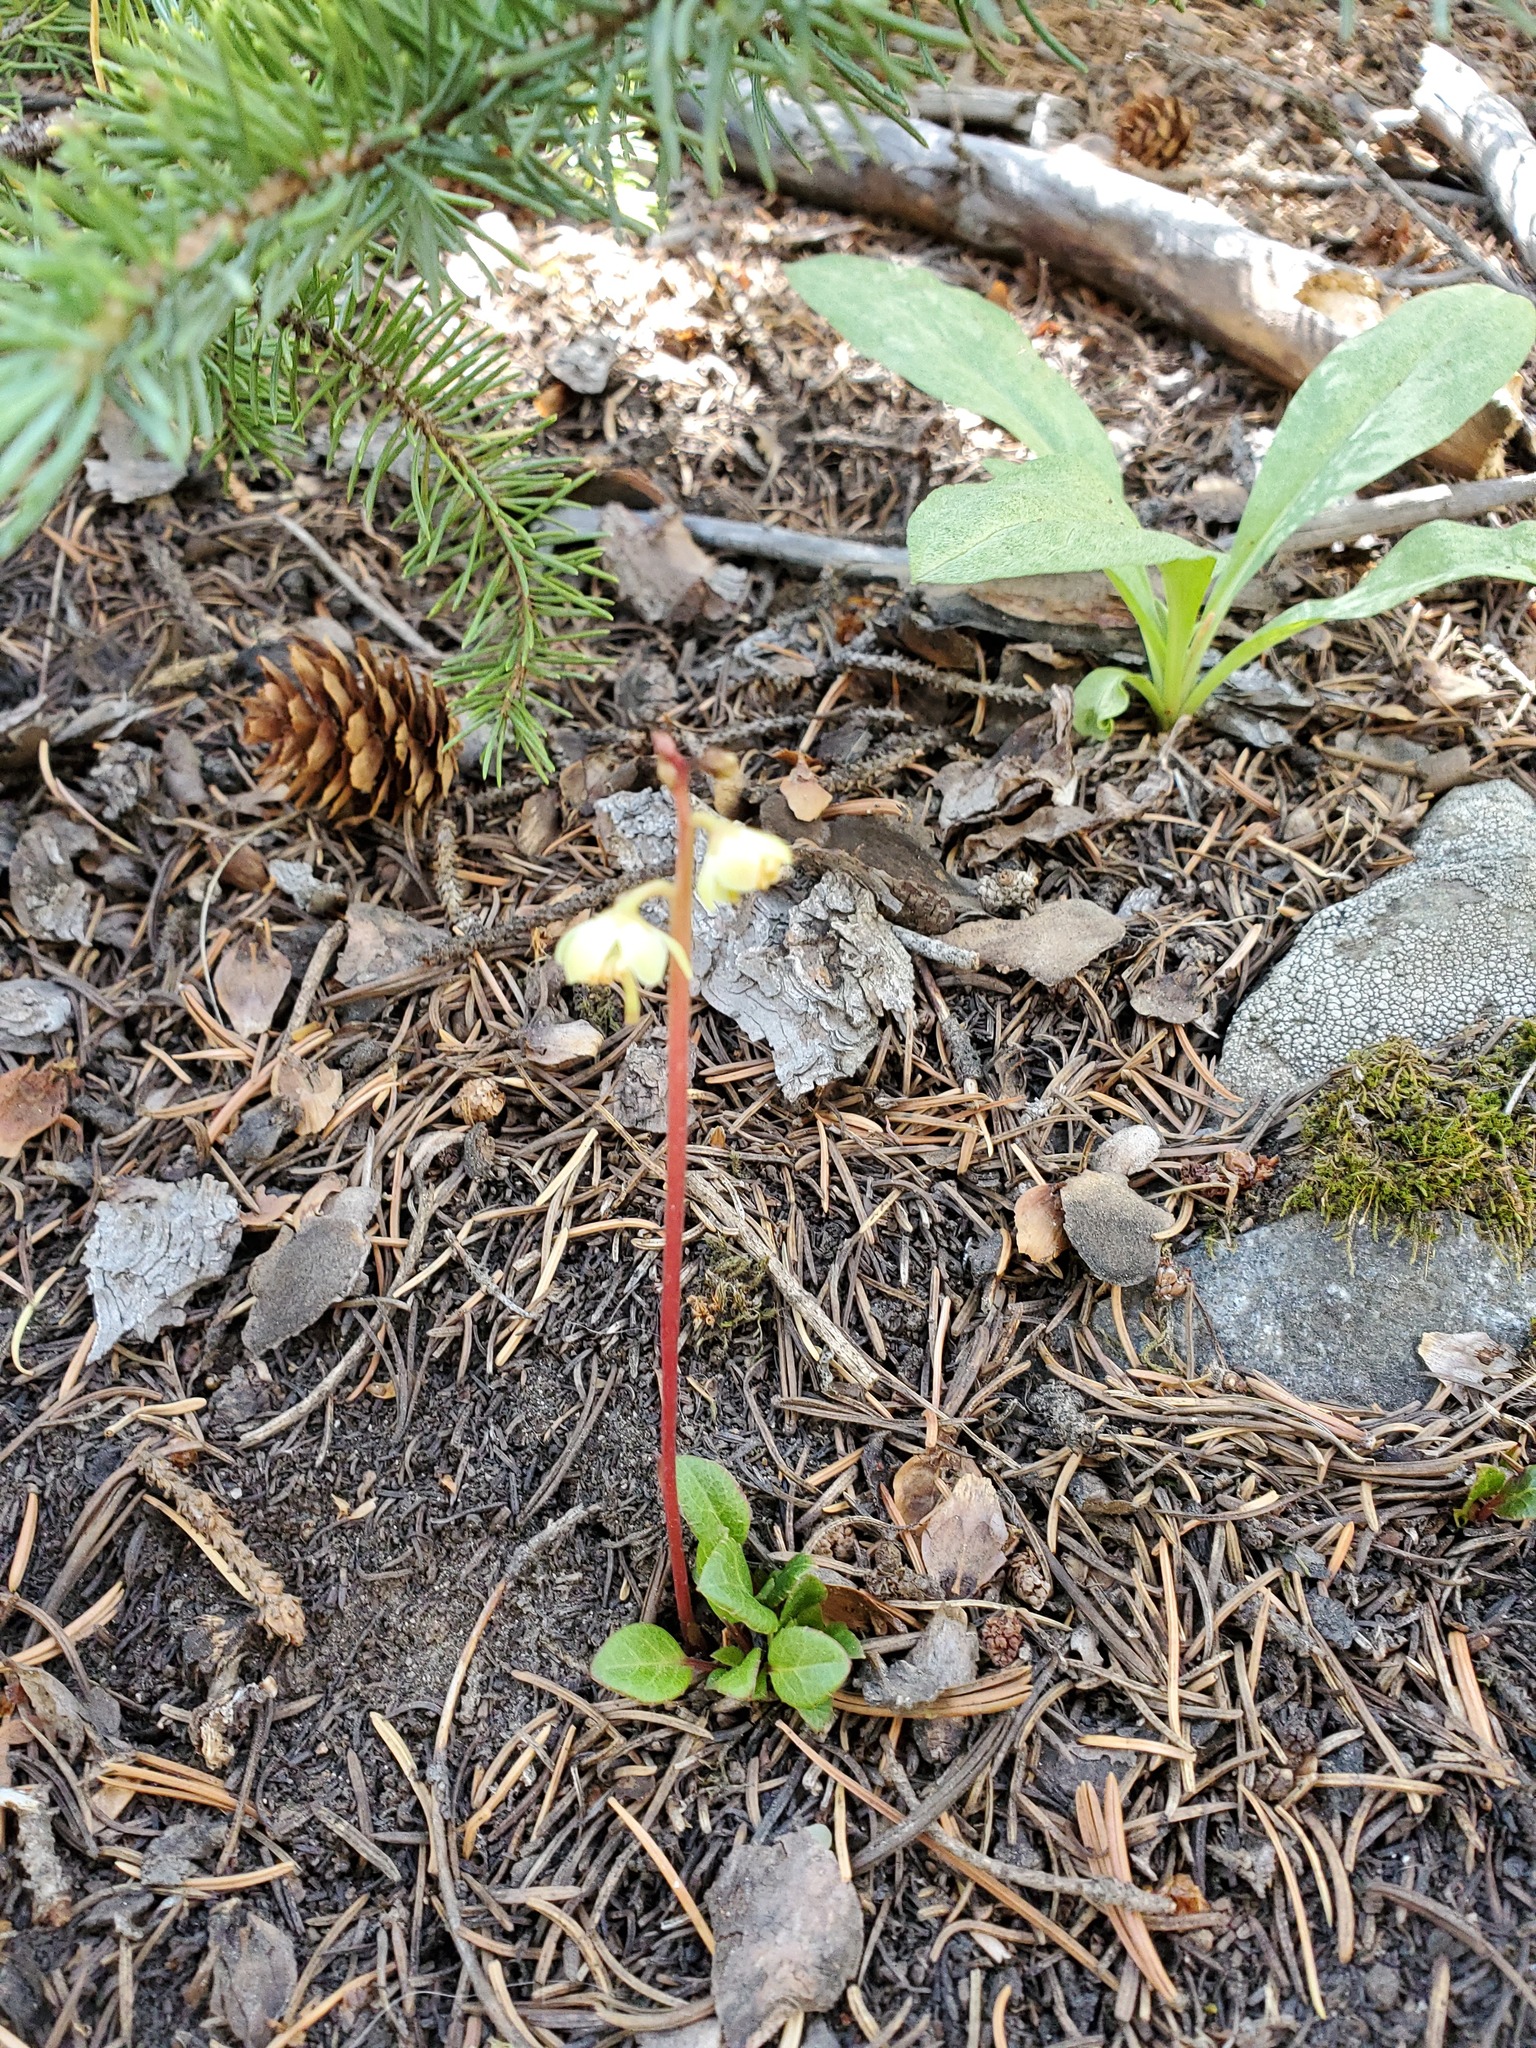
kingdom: Plantae
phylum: Tracheophyta
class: Magnoliopsida
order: Ericales
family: Ericaceae
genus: Pyrola
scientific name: Pyrola chlorantha
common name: Green wintergreen
